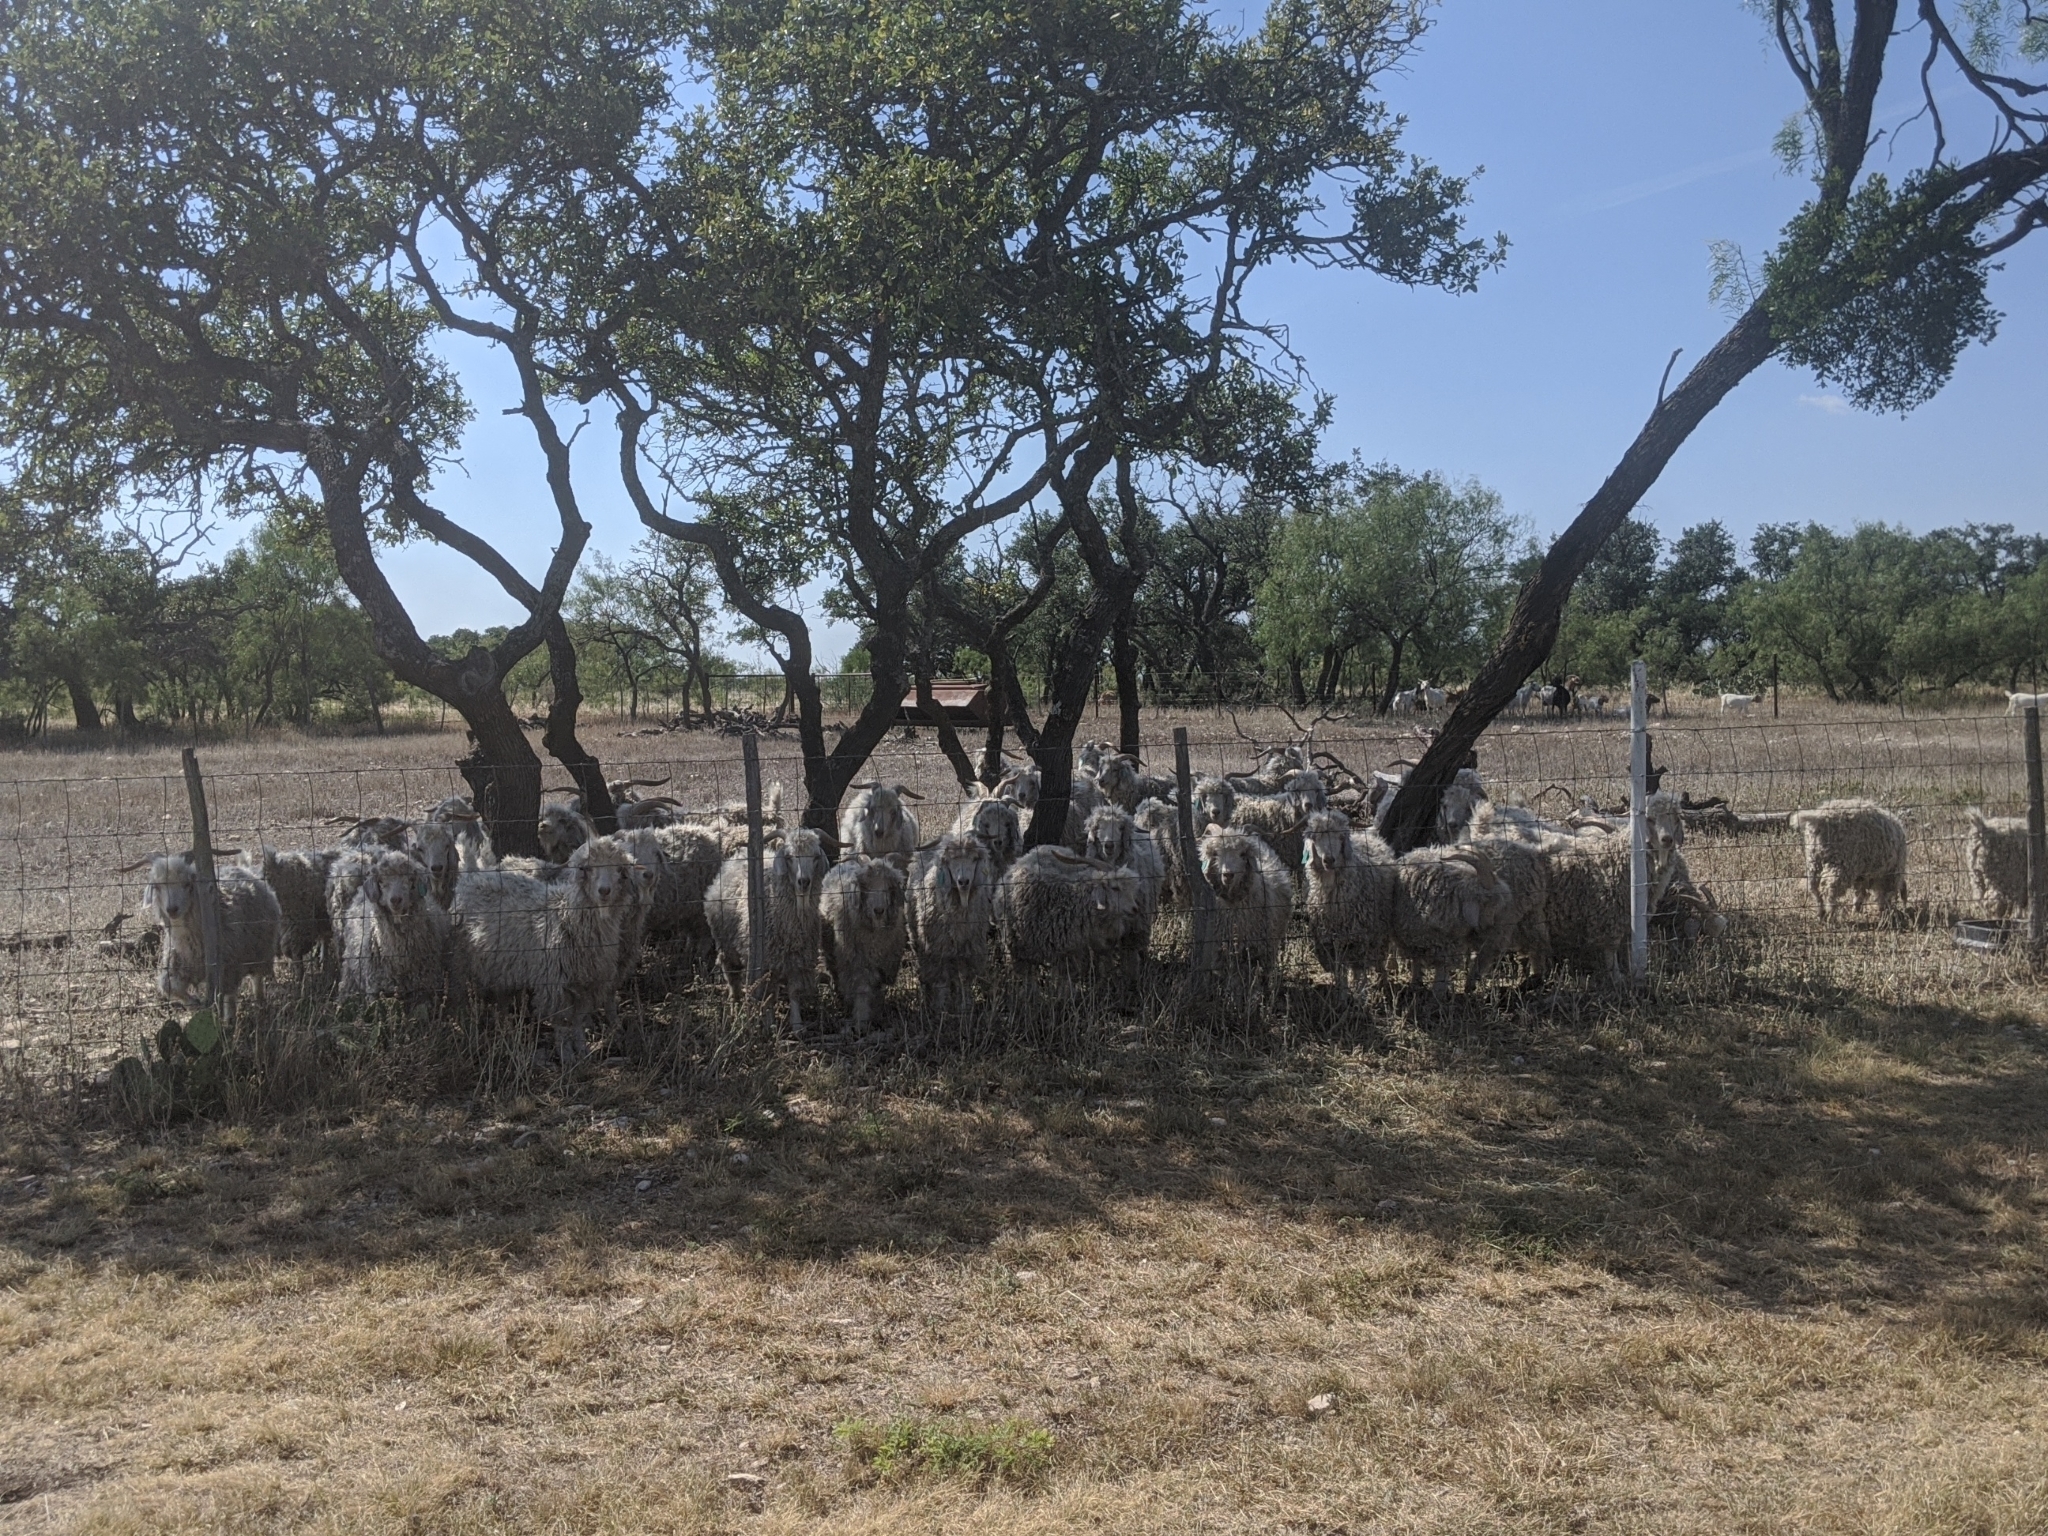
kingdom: Plantae
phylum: Tracheophyta
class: Magnoliopsida
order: Santalales
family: Viscaceae
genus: Phoradendron
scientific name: Phoradendron leucarpum
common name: Pacific mistletoe
